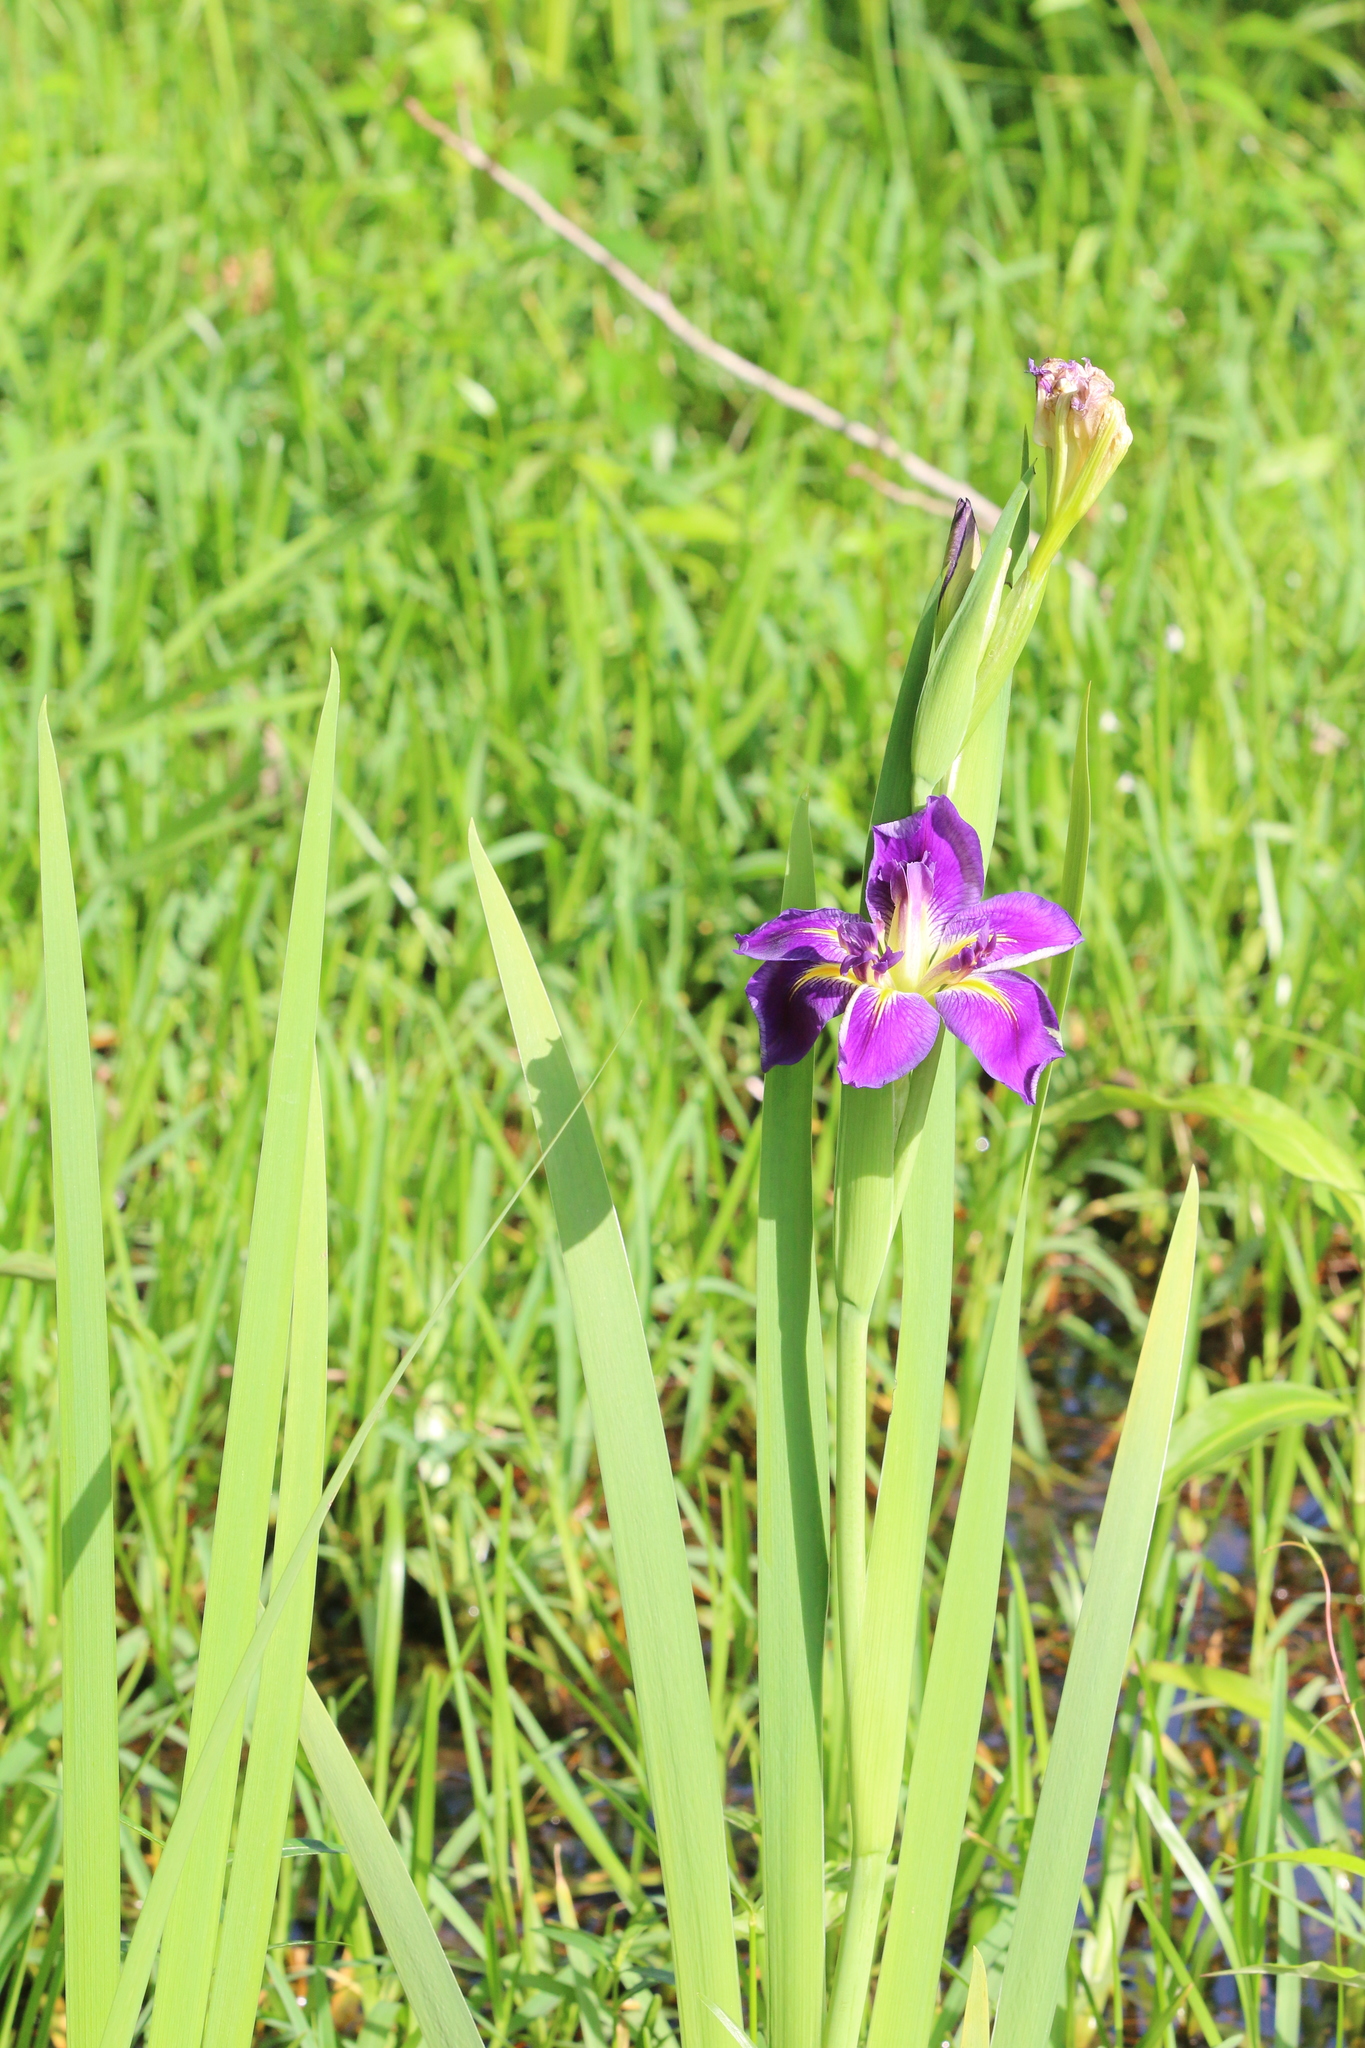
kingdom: Plantae
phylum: Tracheophyta
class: Liliopsida
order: Asparagales
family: Iridaceae
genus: Iris
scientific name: Iris vinicolor
